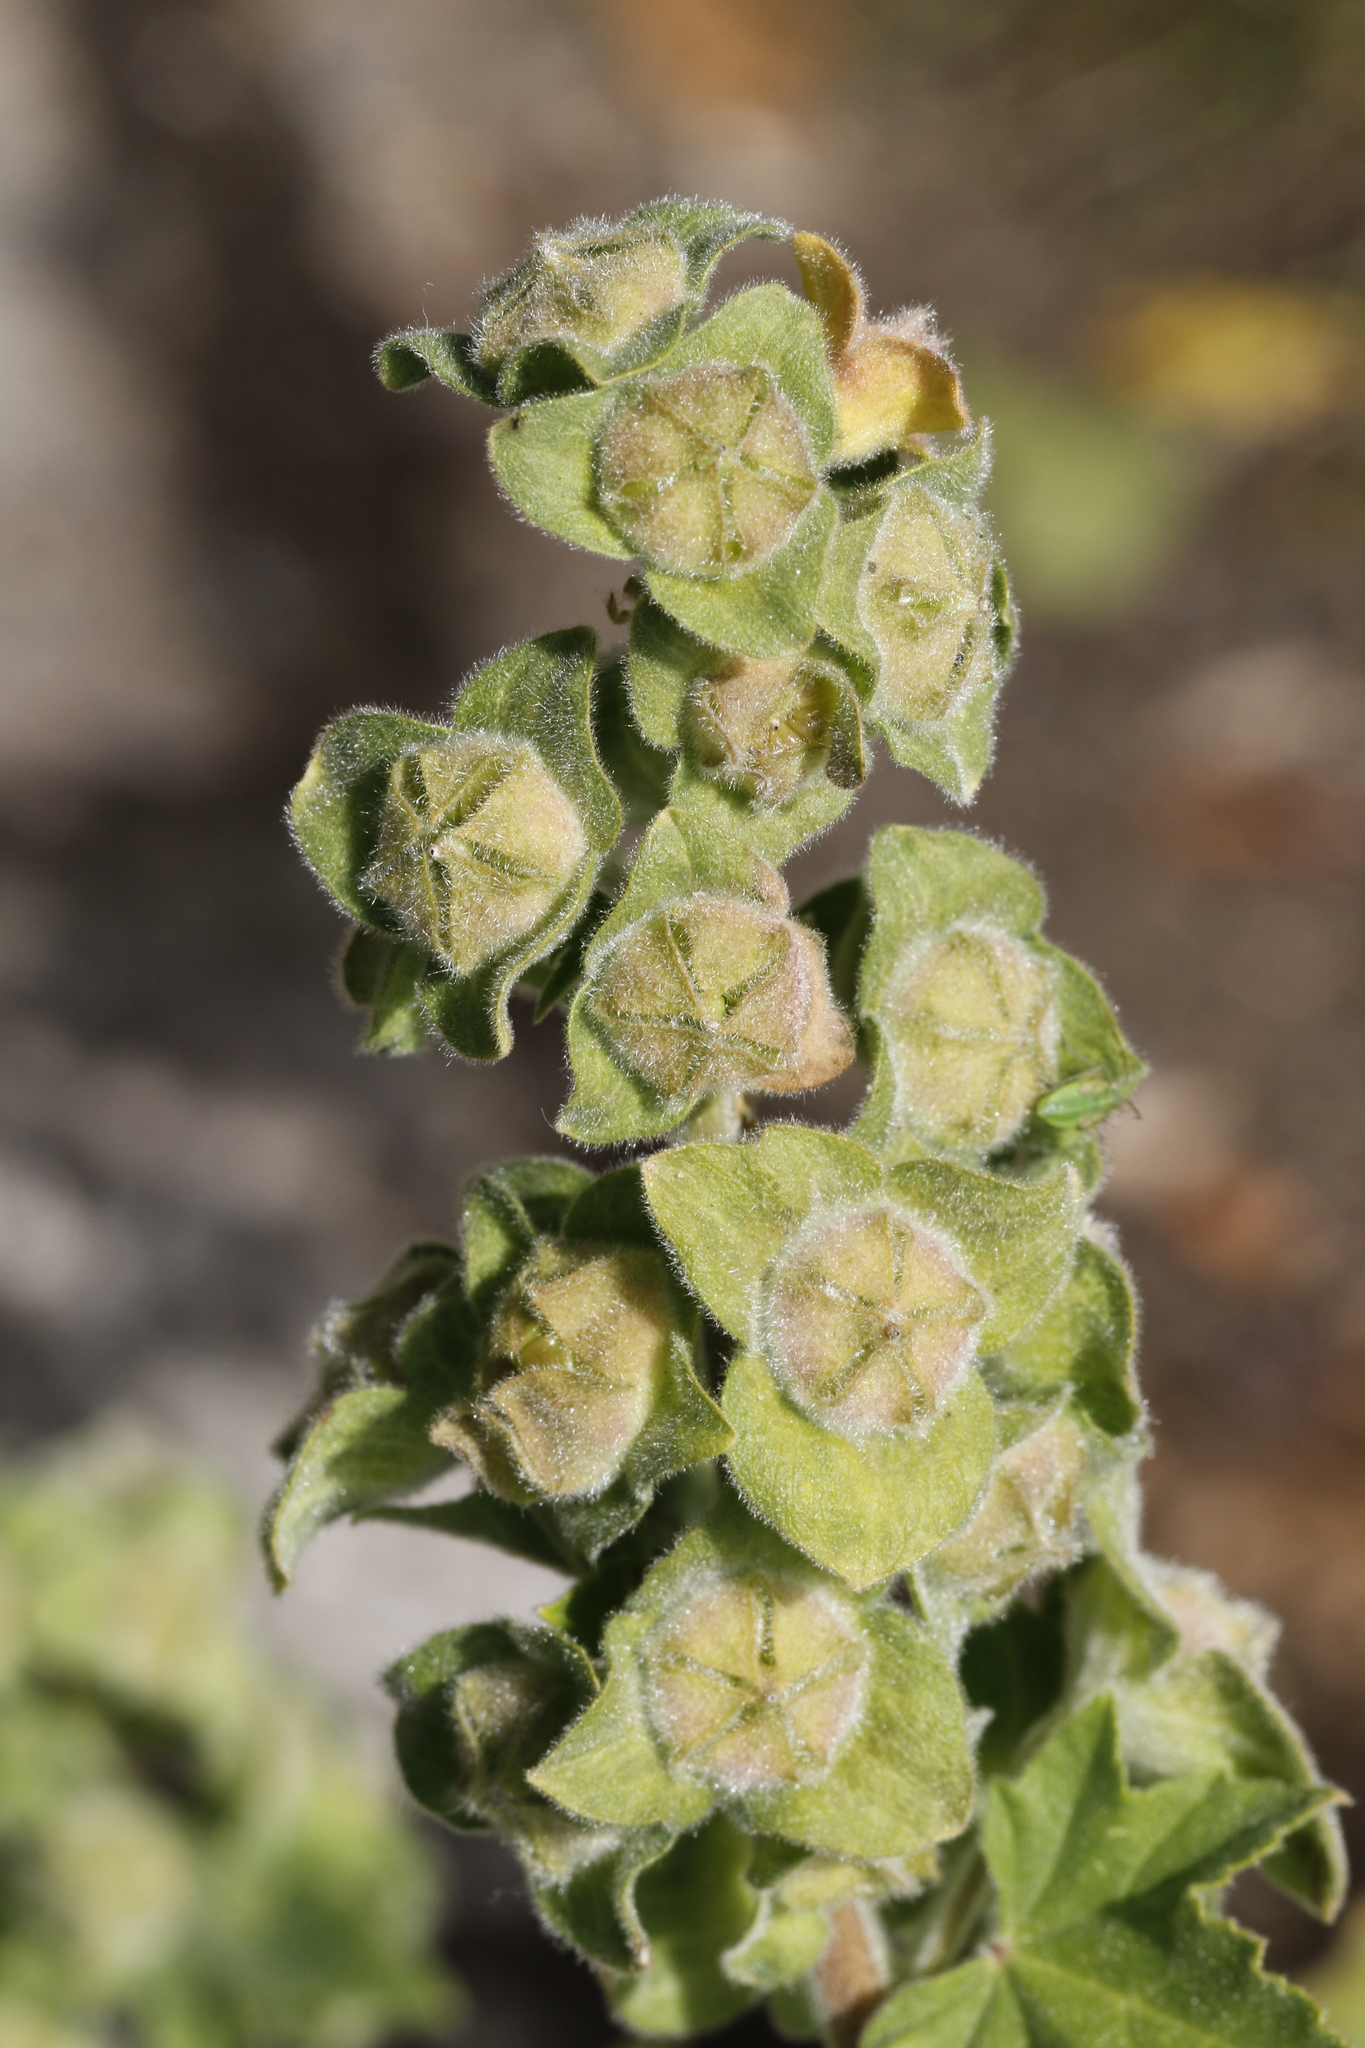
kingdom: Plantae
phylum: Tracheophyta
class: Magnoliopsida
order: Malvales
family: Malvaceae
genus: Malva
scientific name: Malva arborea
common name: Tree mallow
